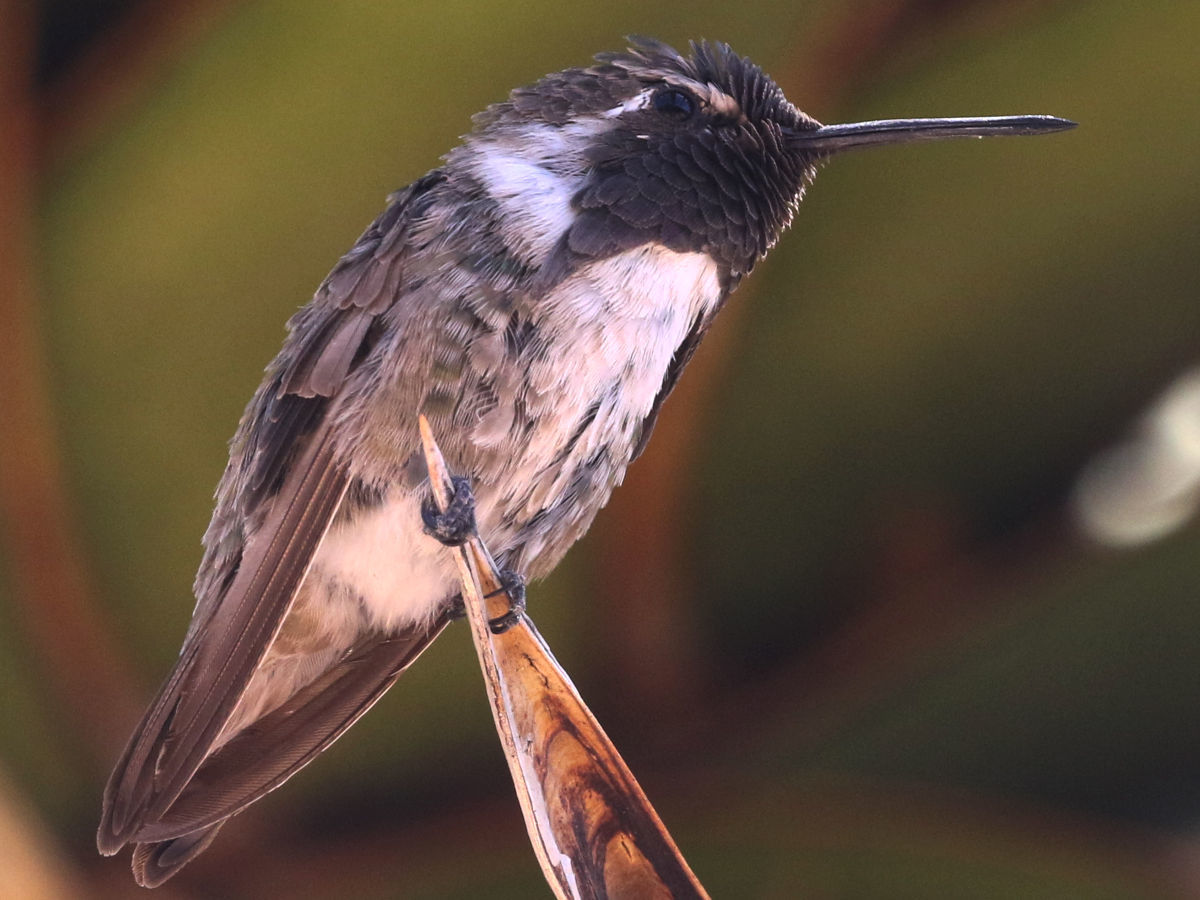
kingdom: Animalia
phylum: Chordata
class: Aves
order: Apodiformes
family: Trochilidae
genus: Calypte
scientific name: Calypte costae
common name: Costa's hummingbird
